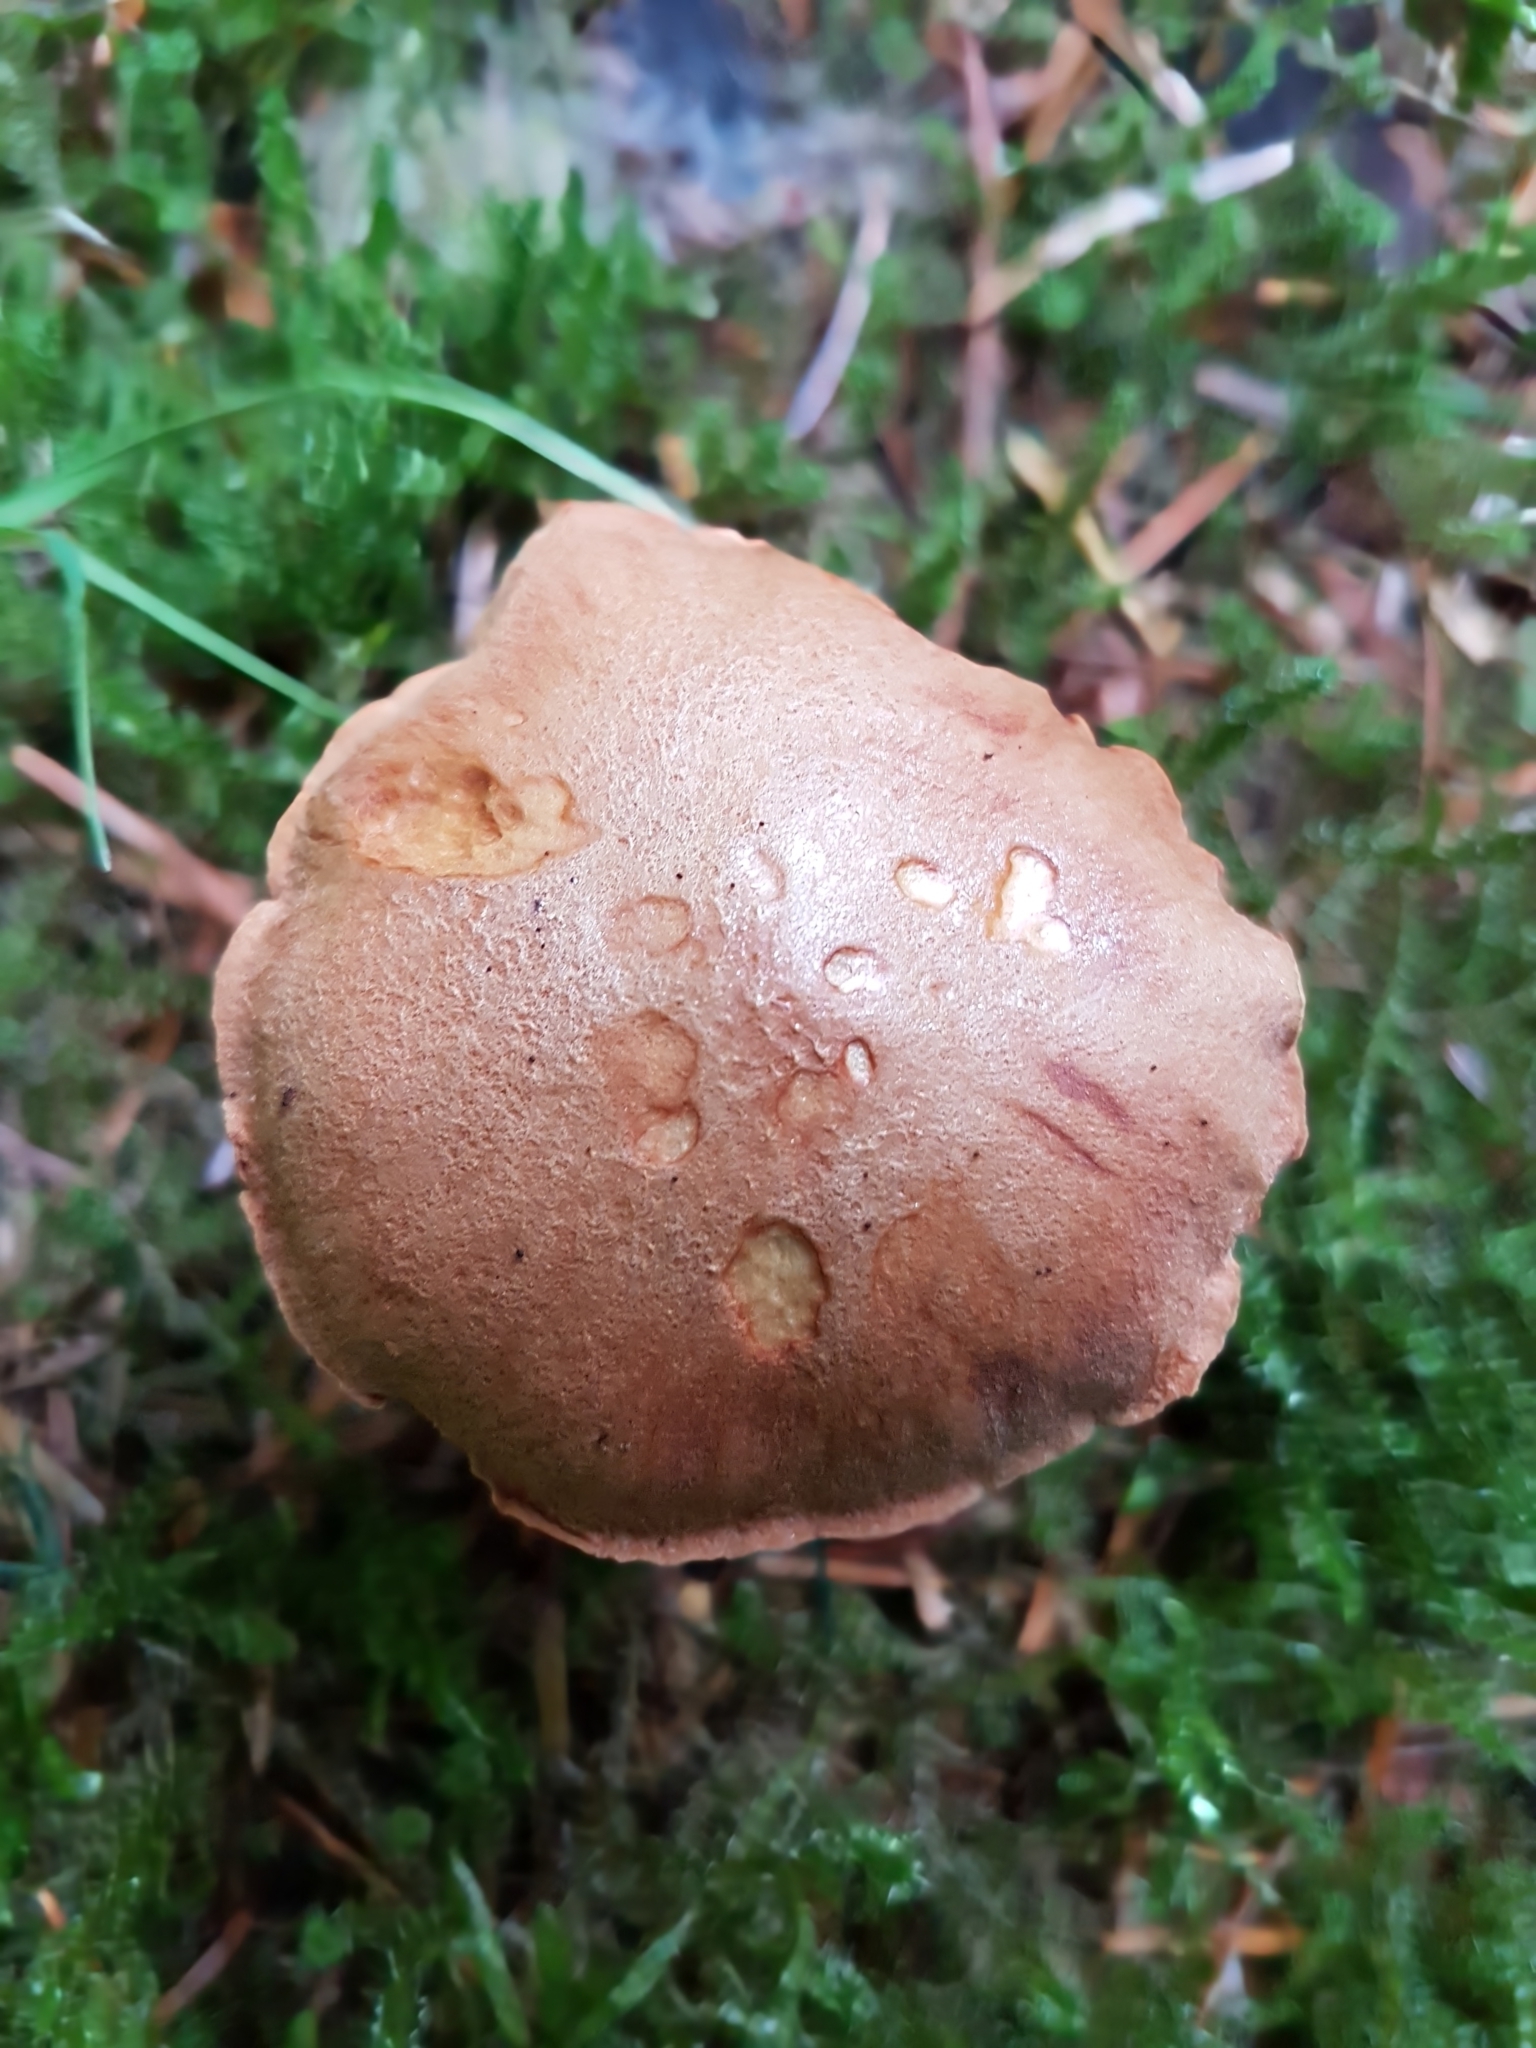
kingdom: Fungi
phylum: Basidiomycota
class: Agaricomycetes
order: Boletales
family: Boletaceae
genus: Chalciporus
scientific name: Chalciporus piperatus
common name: Peppery bolete
